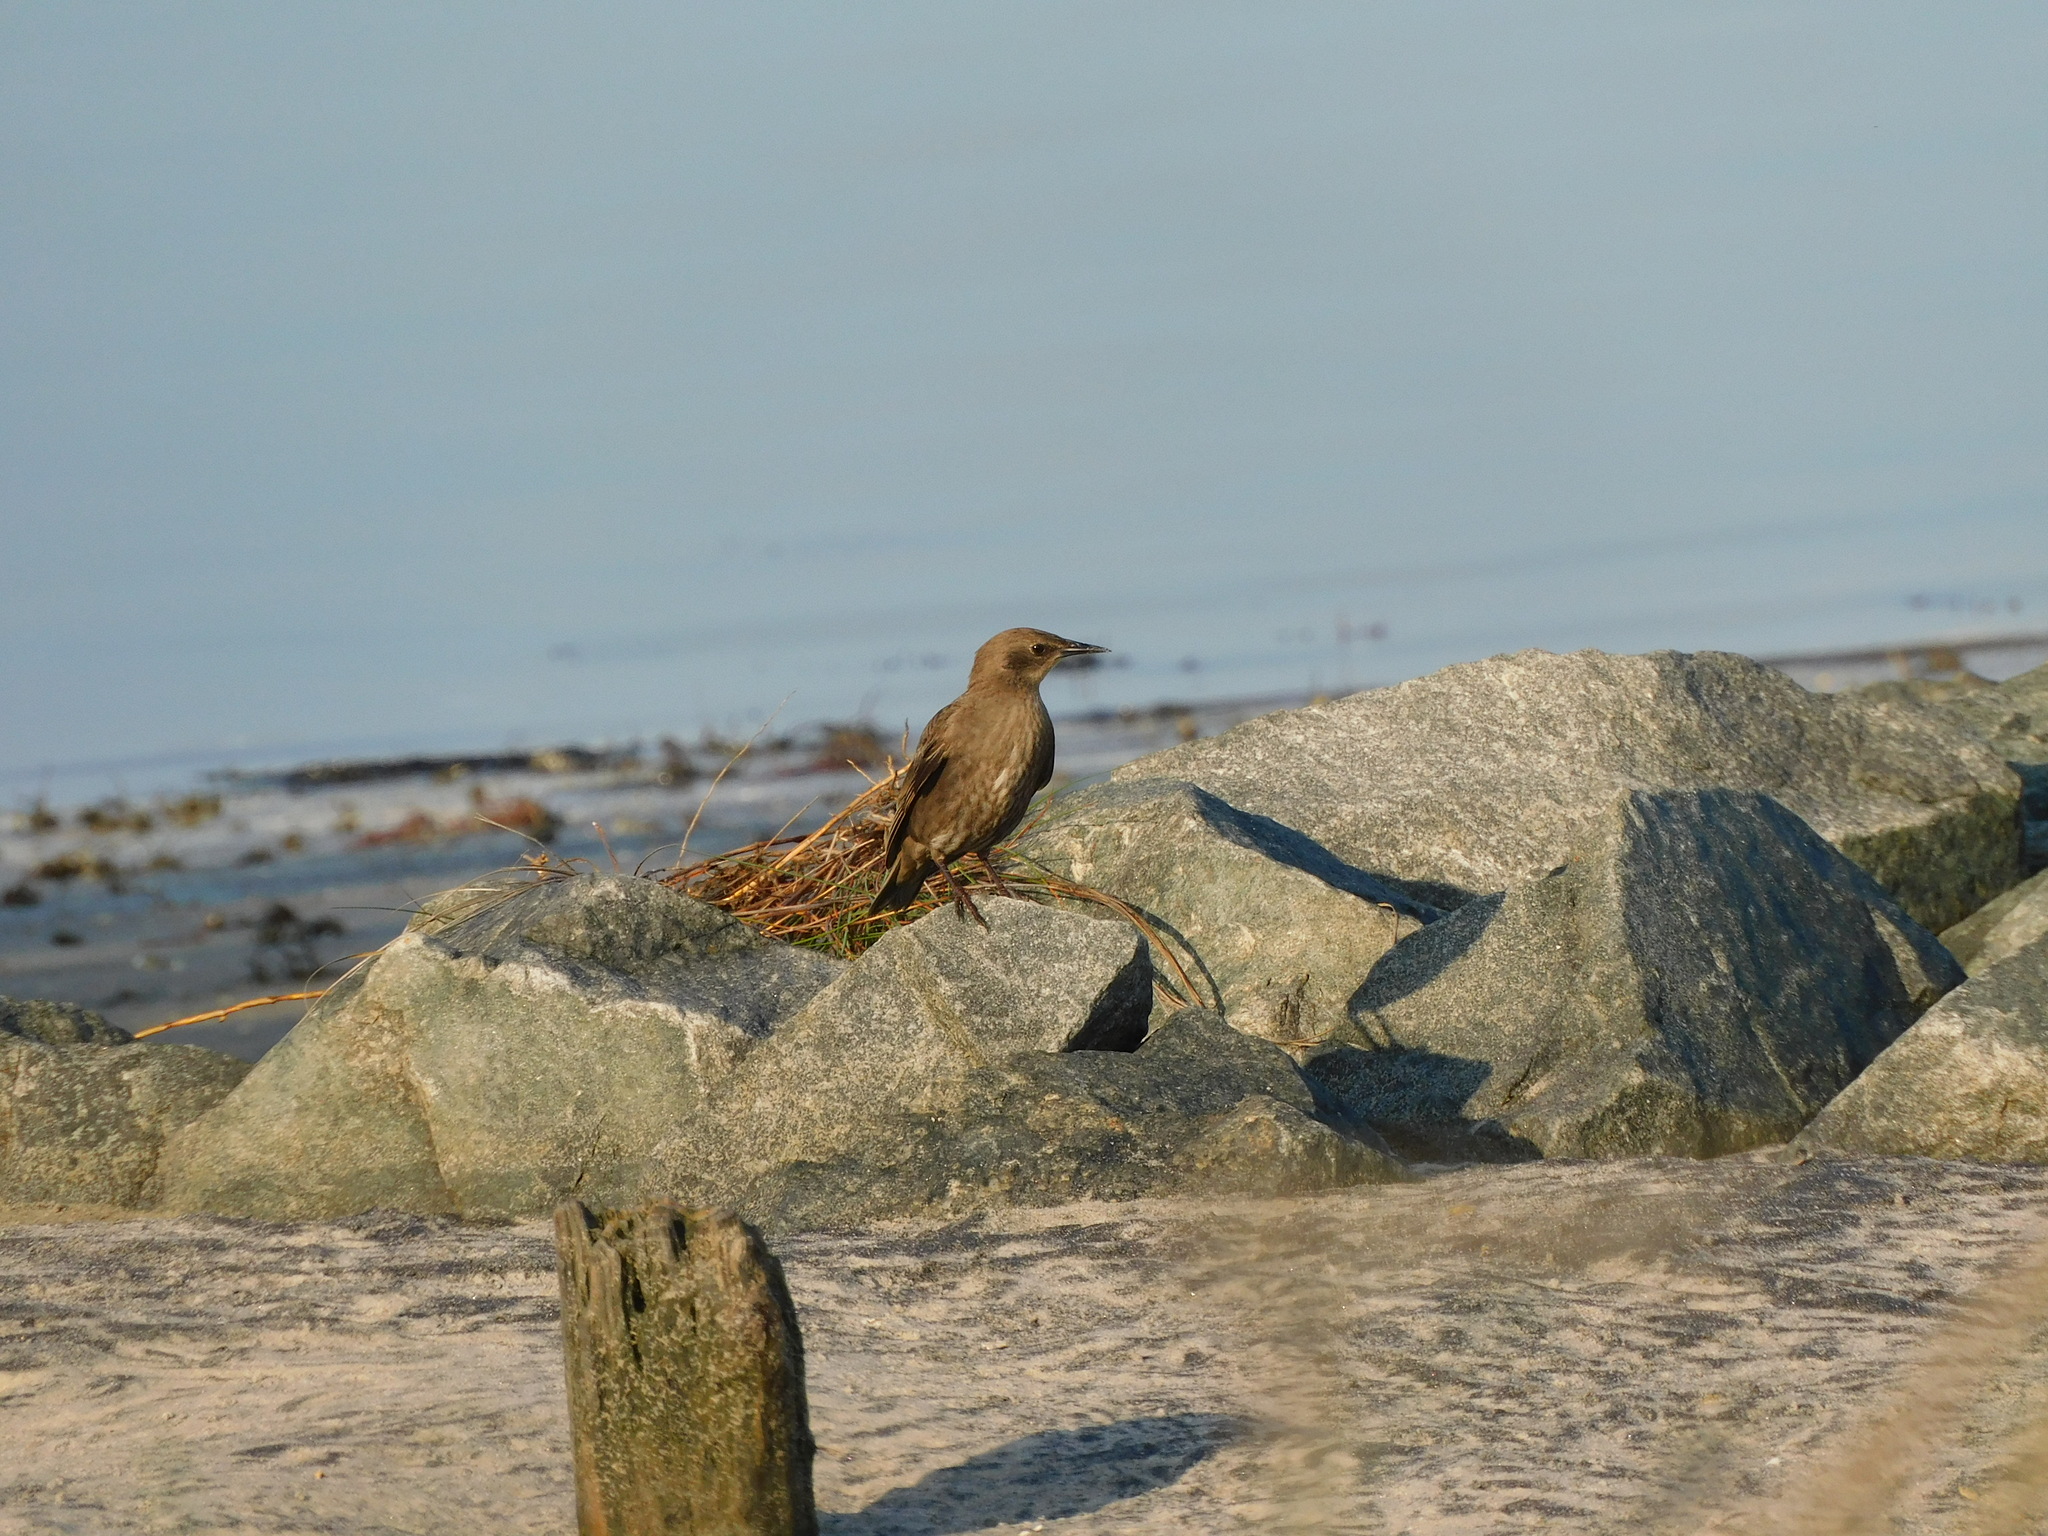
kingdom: Animalia
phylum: Chordata
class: Aves
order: Passeriformes
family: Sturnidae
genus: Sturnus
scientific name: Sturnus vulgaris
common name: Common starling
